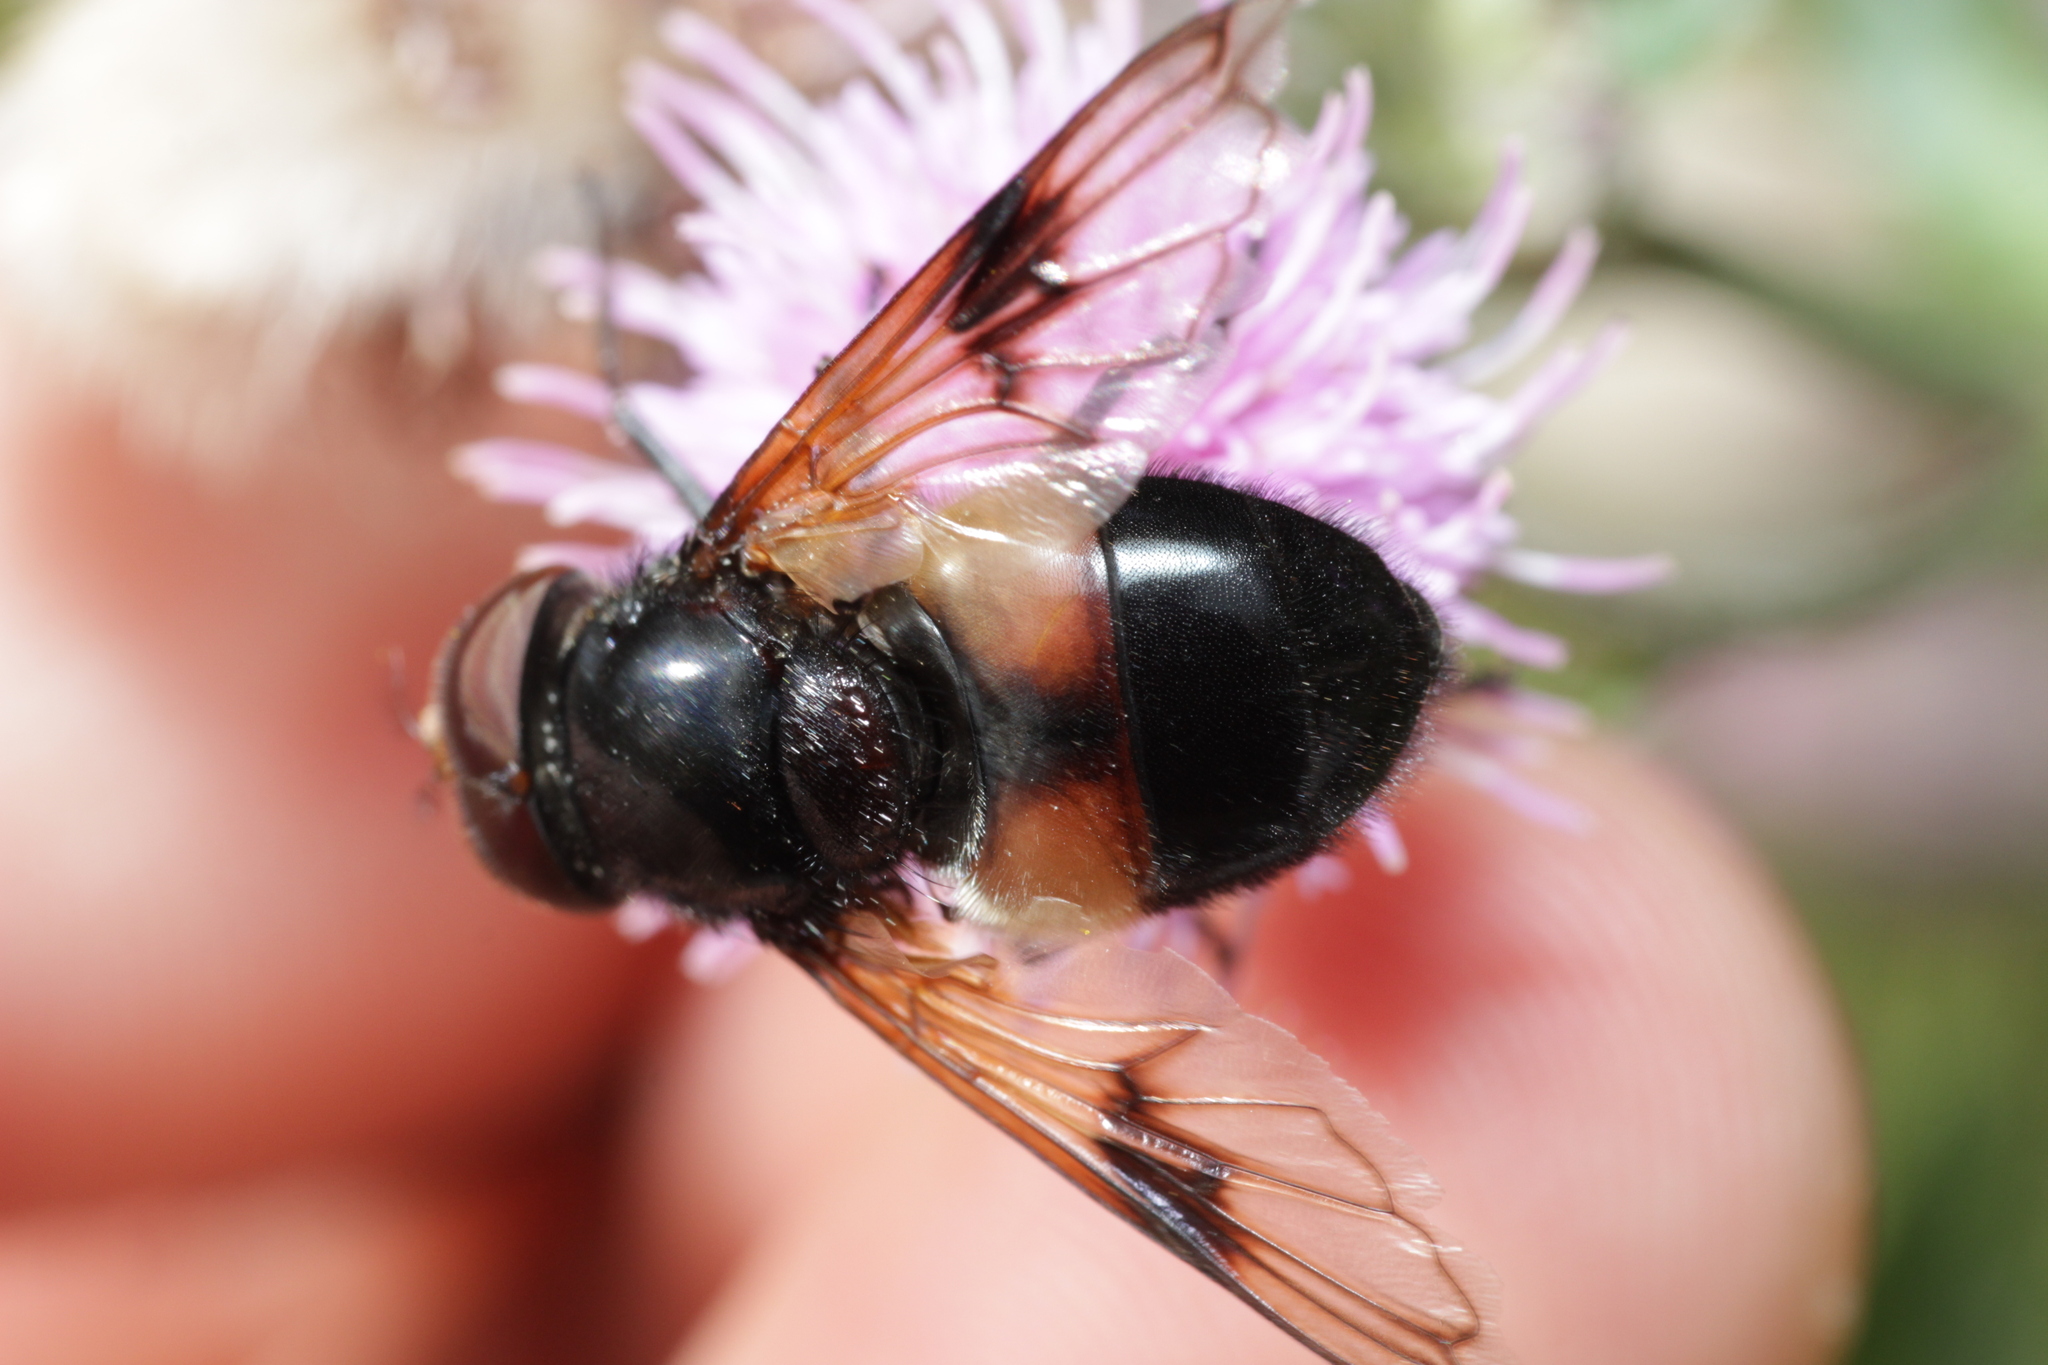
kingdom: Animalia
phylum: Arthropoda
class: Insecta
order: Diptera
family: Syrphidae
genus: Volucella
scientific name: Volucella pellucens
